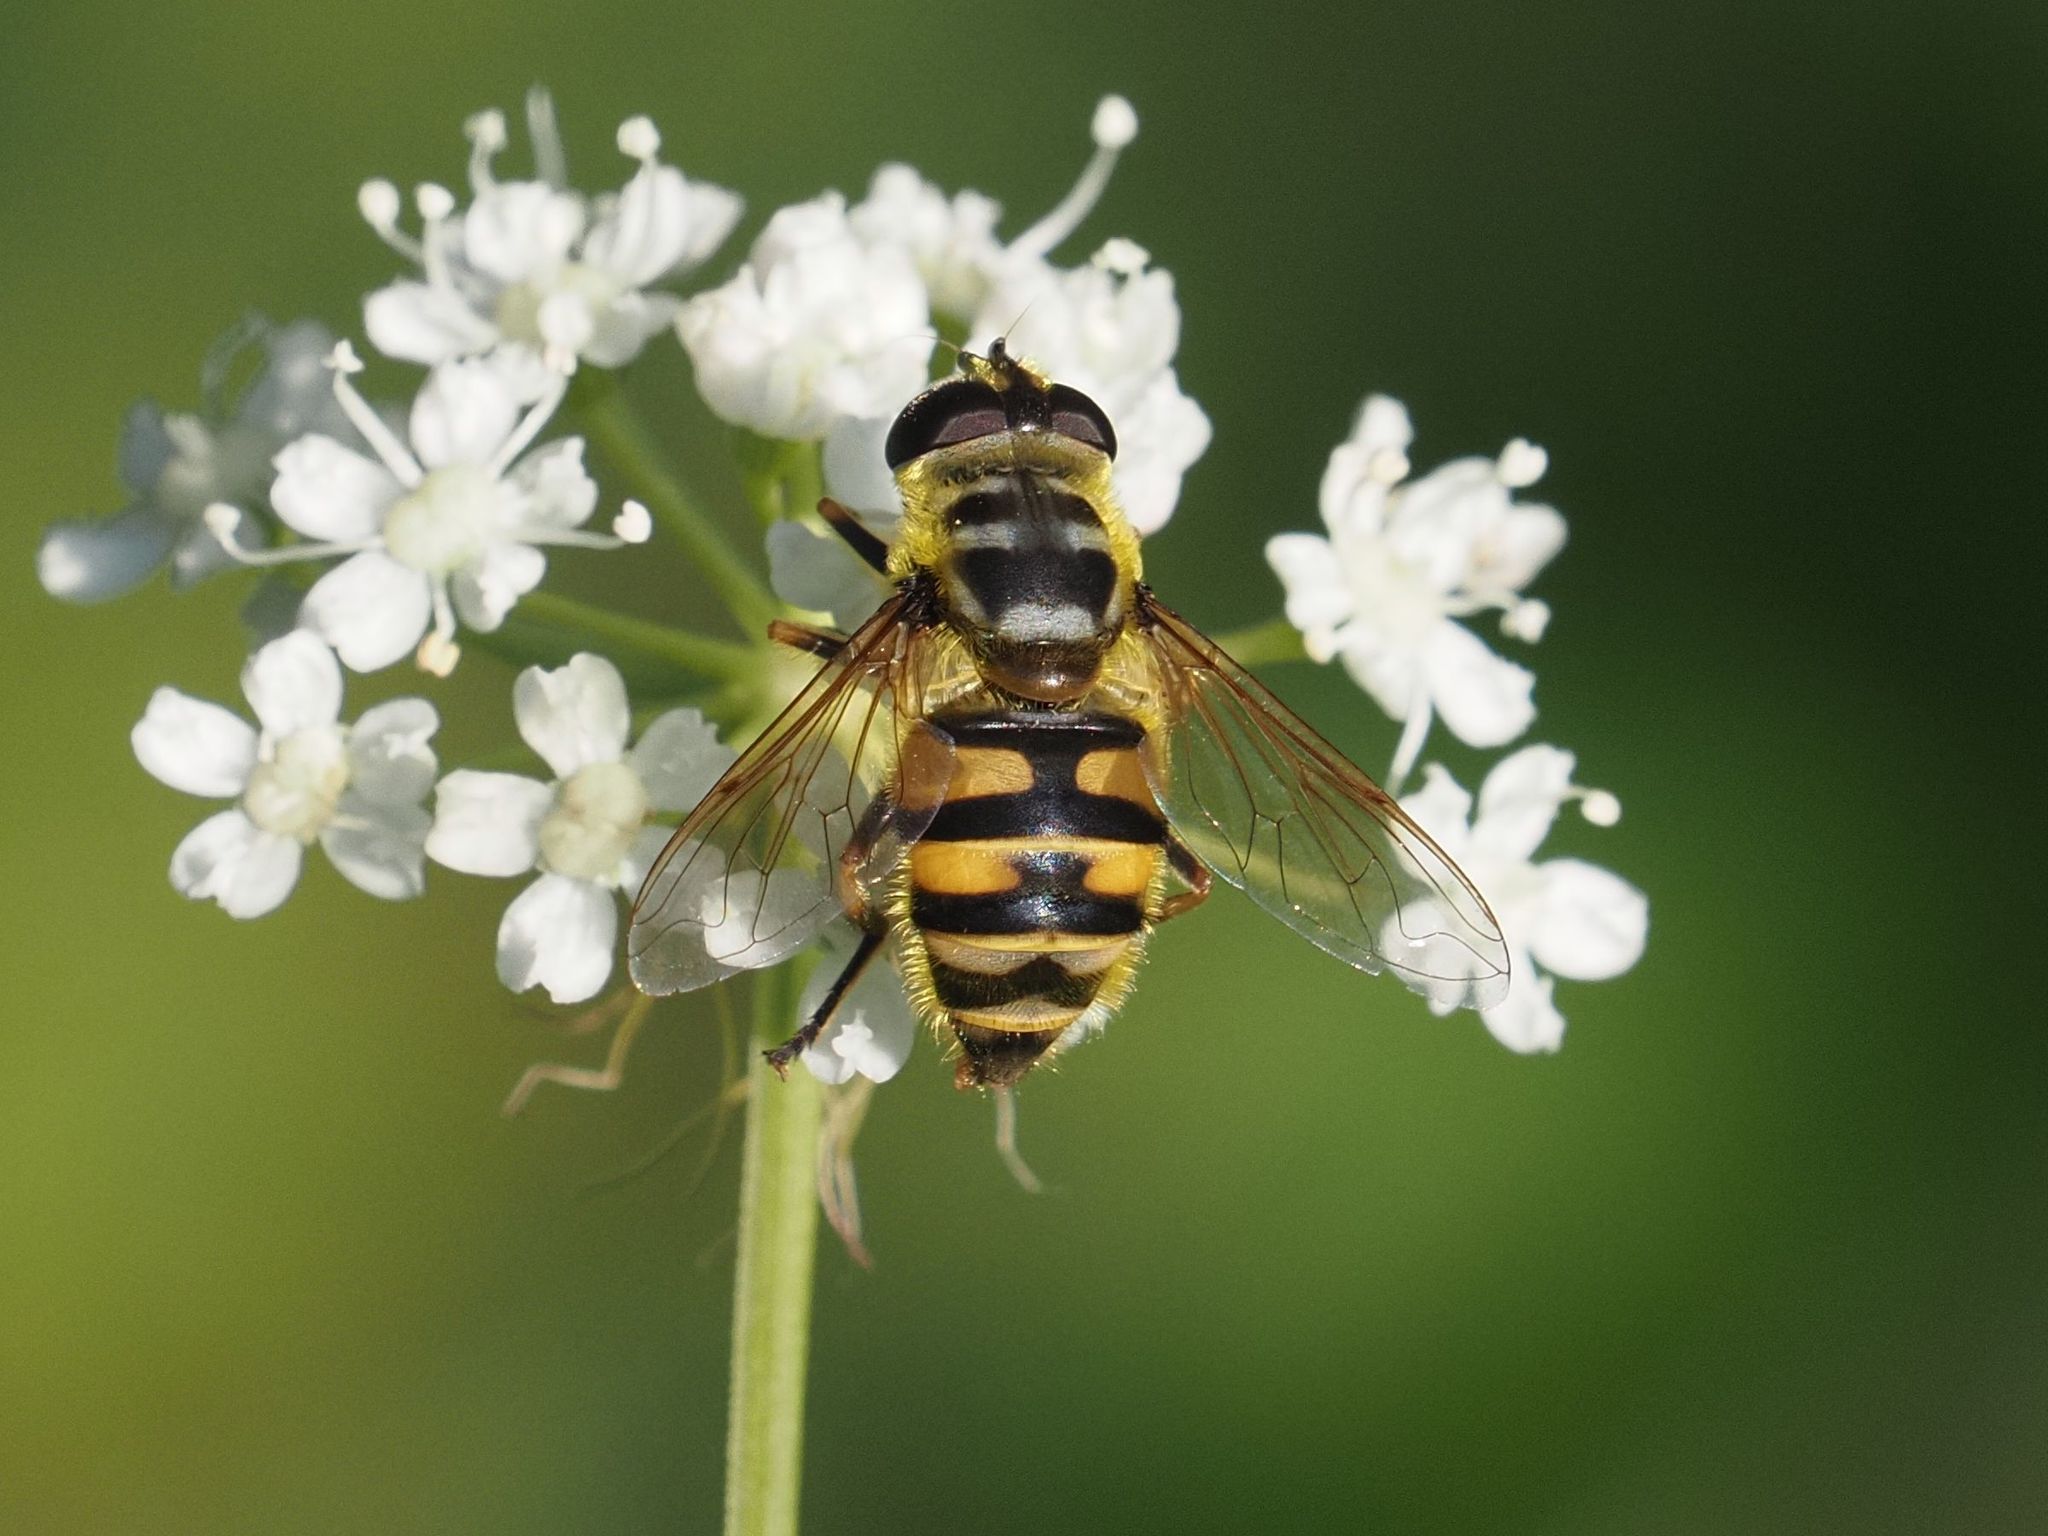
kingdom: Animalia
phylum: Arthropoda
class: Insecta
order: Diptera
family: Syrphidae
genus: Myathropa
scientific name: Myathropa florea
